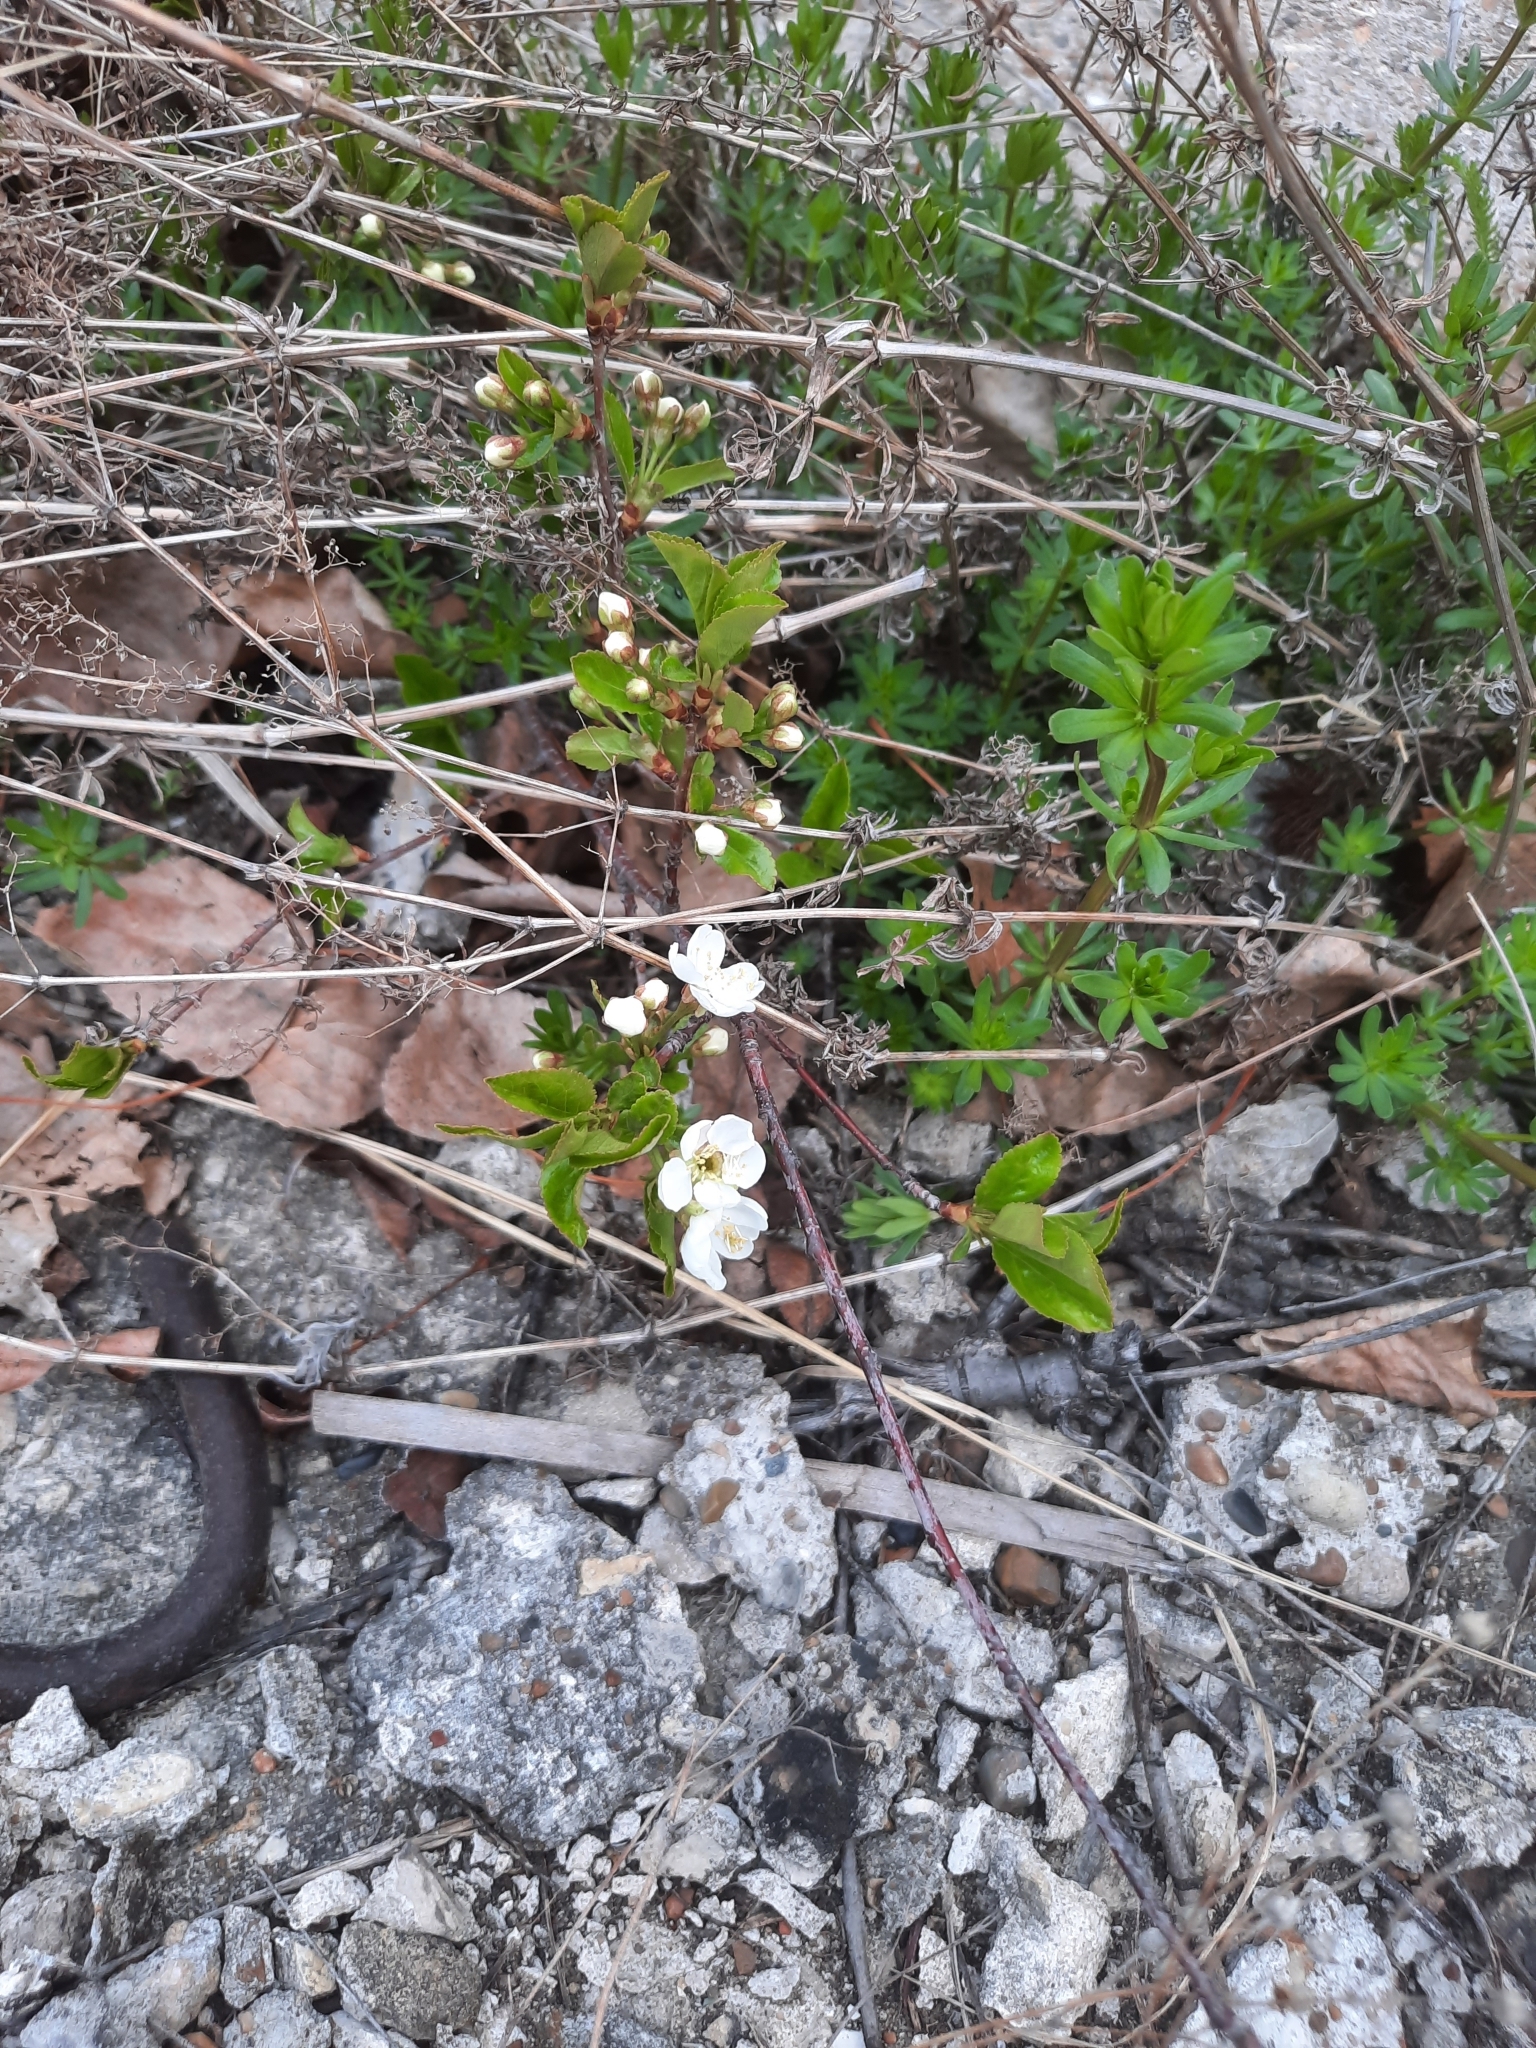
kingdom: Plantae
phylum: Tracheophyta
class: Magnoliopsida
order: Rosales
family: Rosaceae
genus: Prunus
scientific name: Prunus cerasus
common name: Morello cherry
